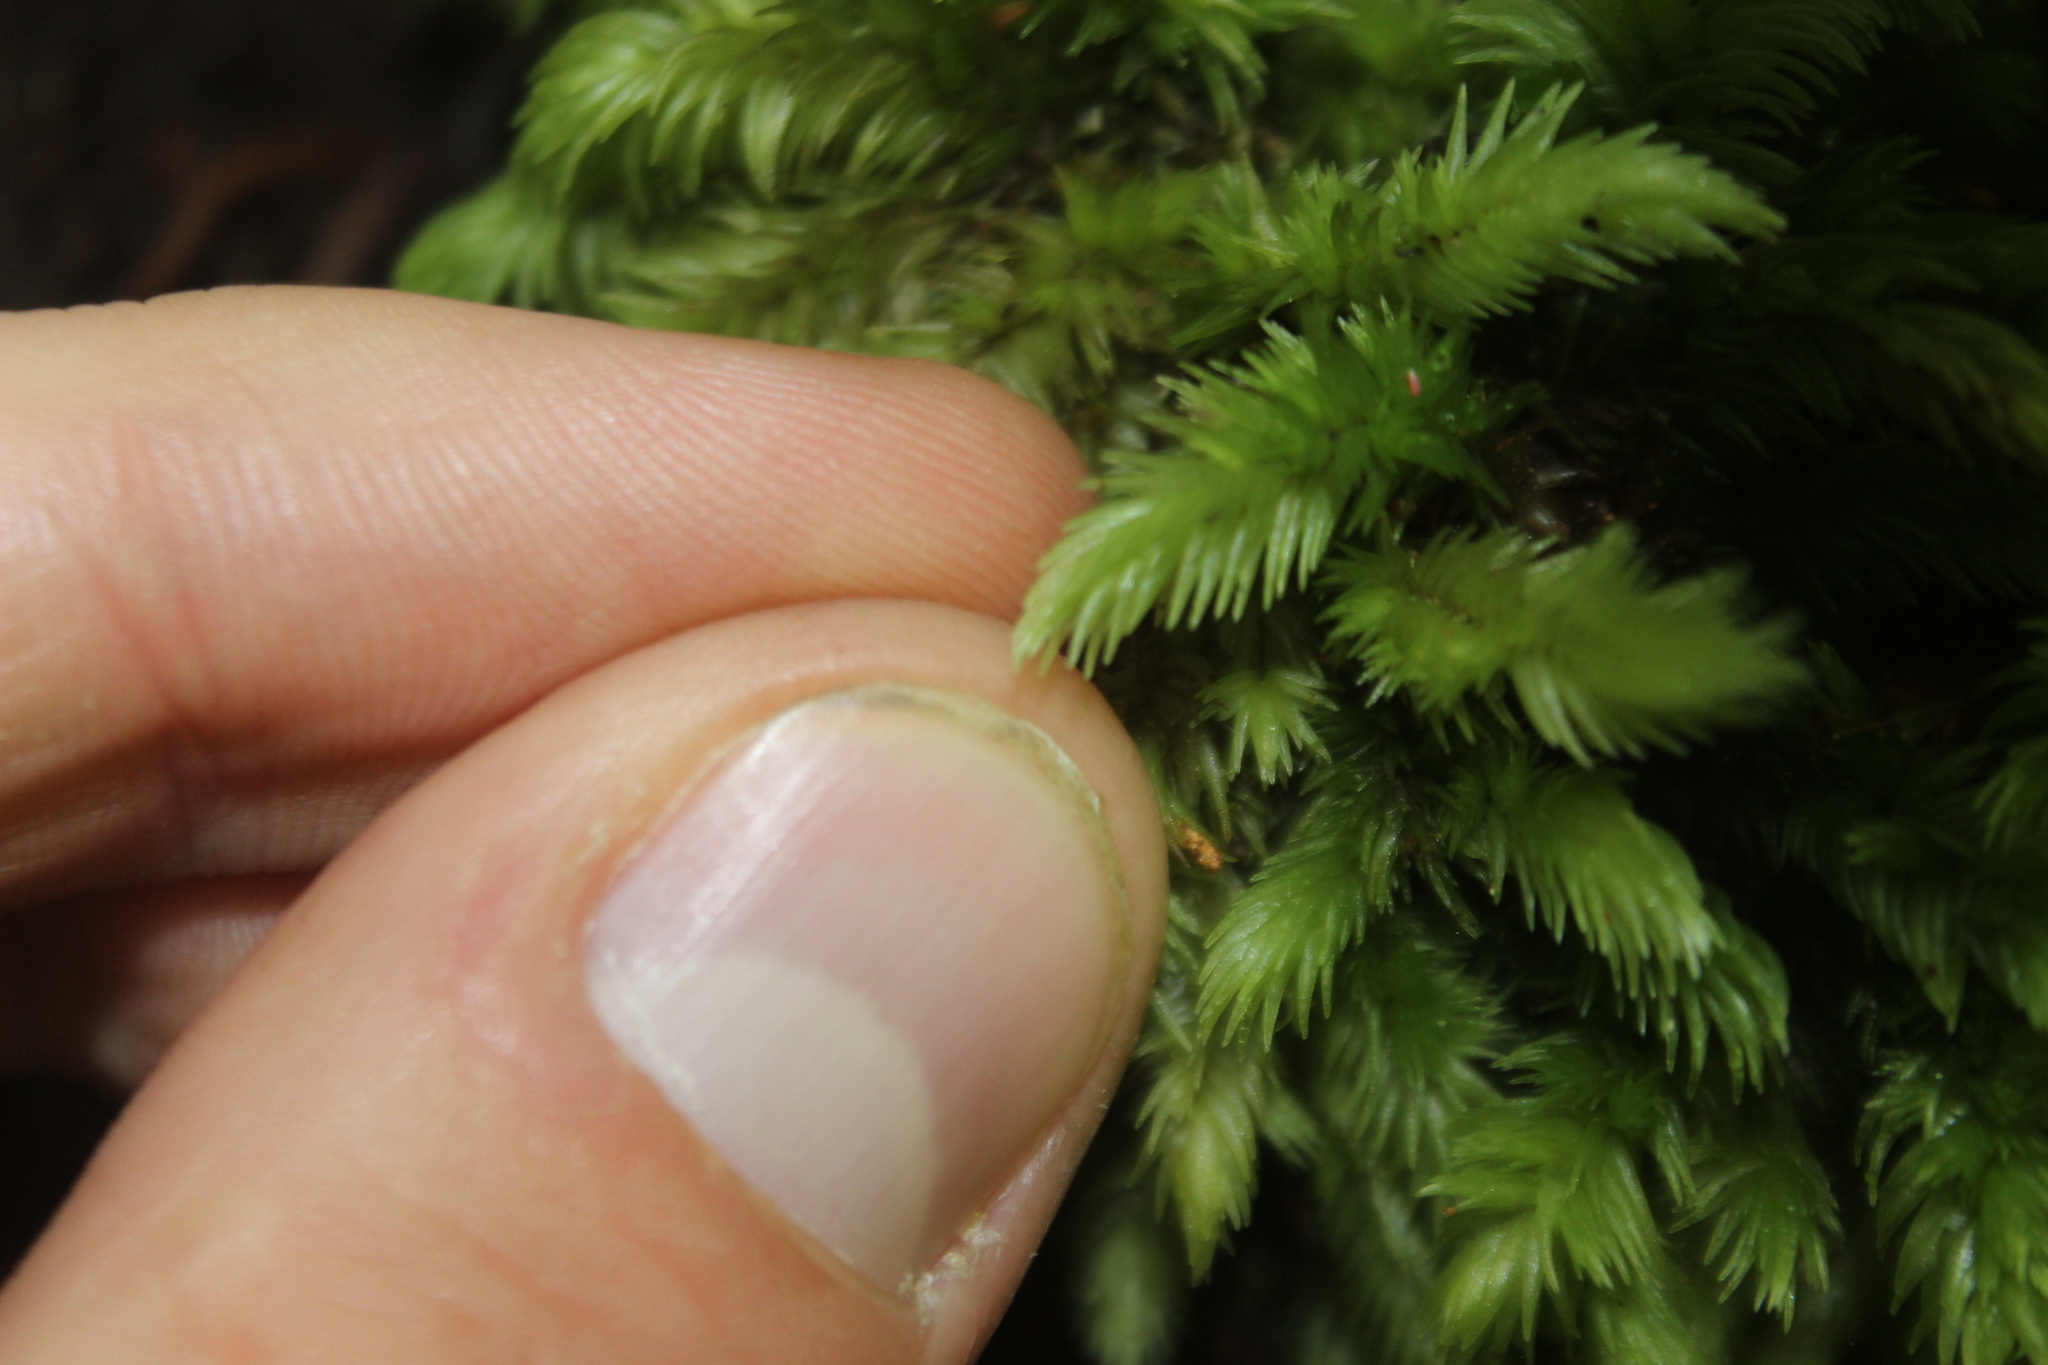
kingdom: Plantae
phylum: Bryophyta
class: Bryopsida
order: Dicranales
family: Leucobryaceae
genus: Leucobryum
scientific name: Leucobryum javense
